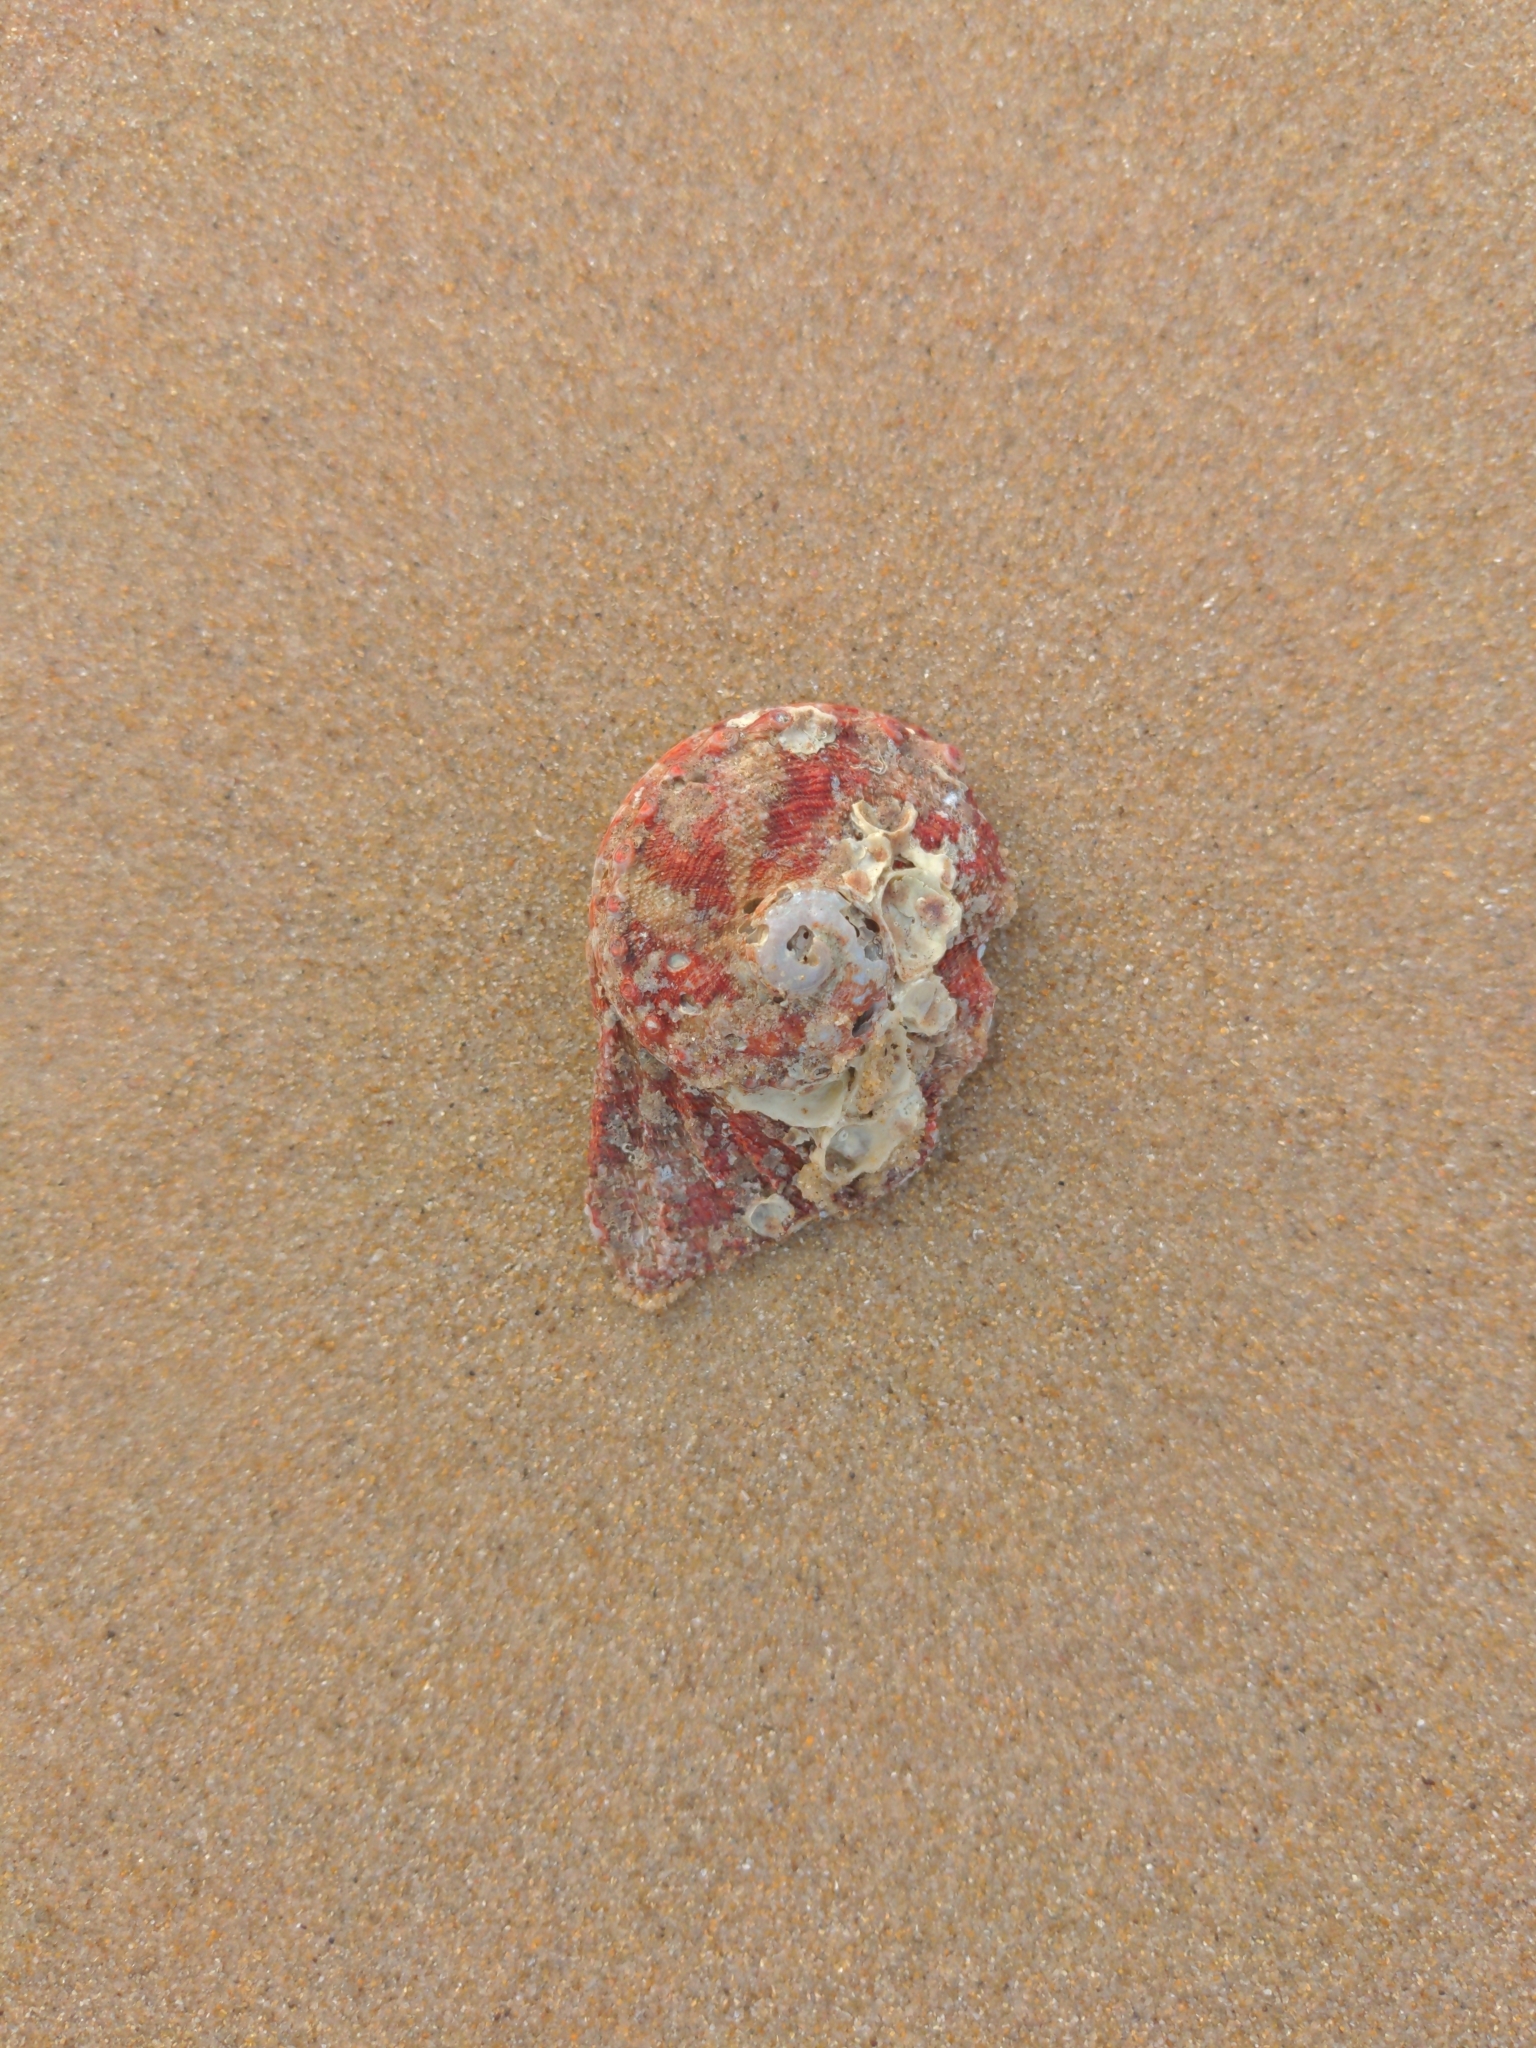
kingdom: Animalia
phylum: Mollusca
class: Gastropoda
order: Lepetellida
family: Haliotidae
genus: Haliotis
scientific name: Haliotis scalaris
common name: Staircase abalone
